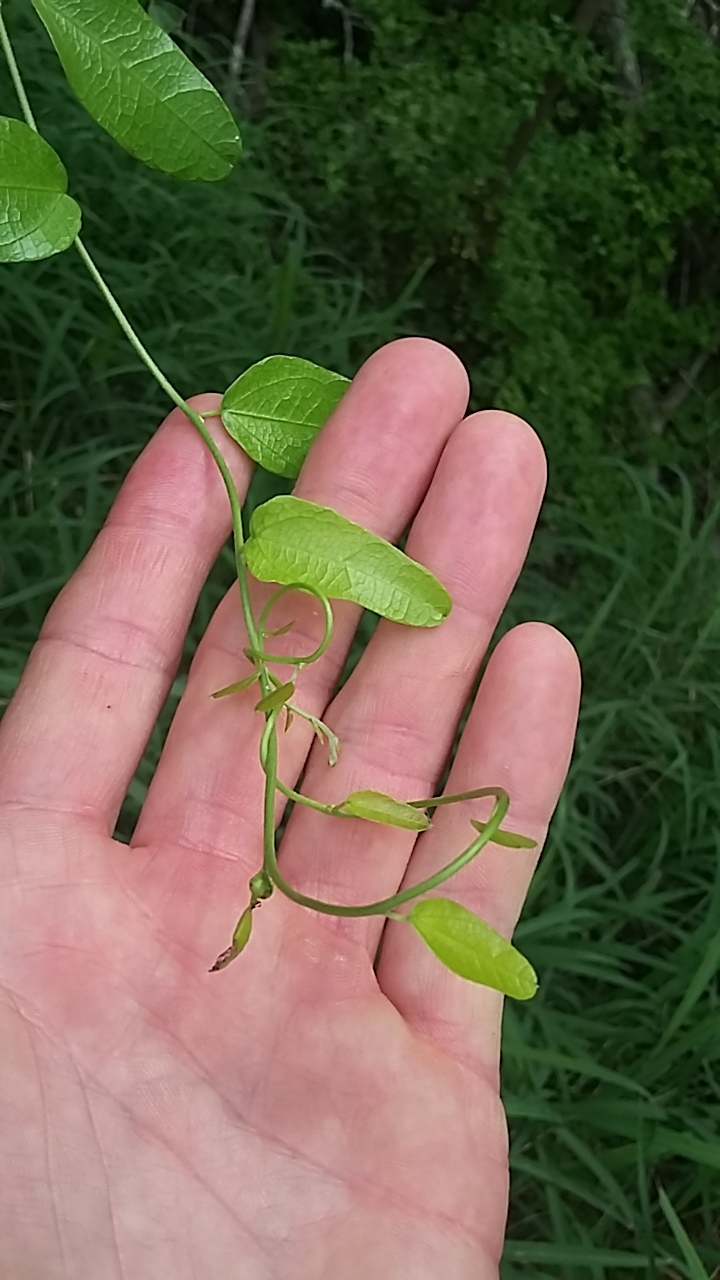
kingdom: Plantae
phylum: Tracheophyta
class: Magnoliopsida
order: Ranunculales
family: Menispermaceae
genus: Cocculus
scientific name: Cocculus diversifolius
